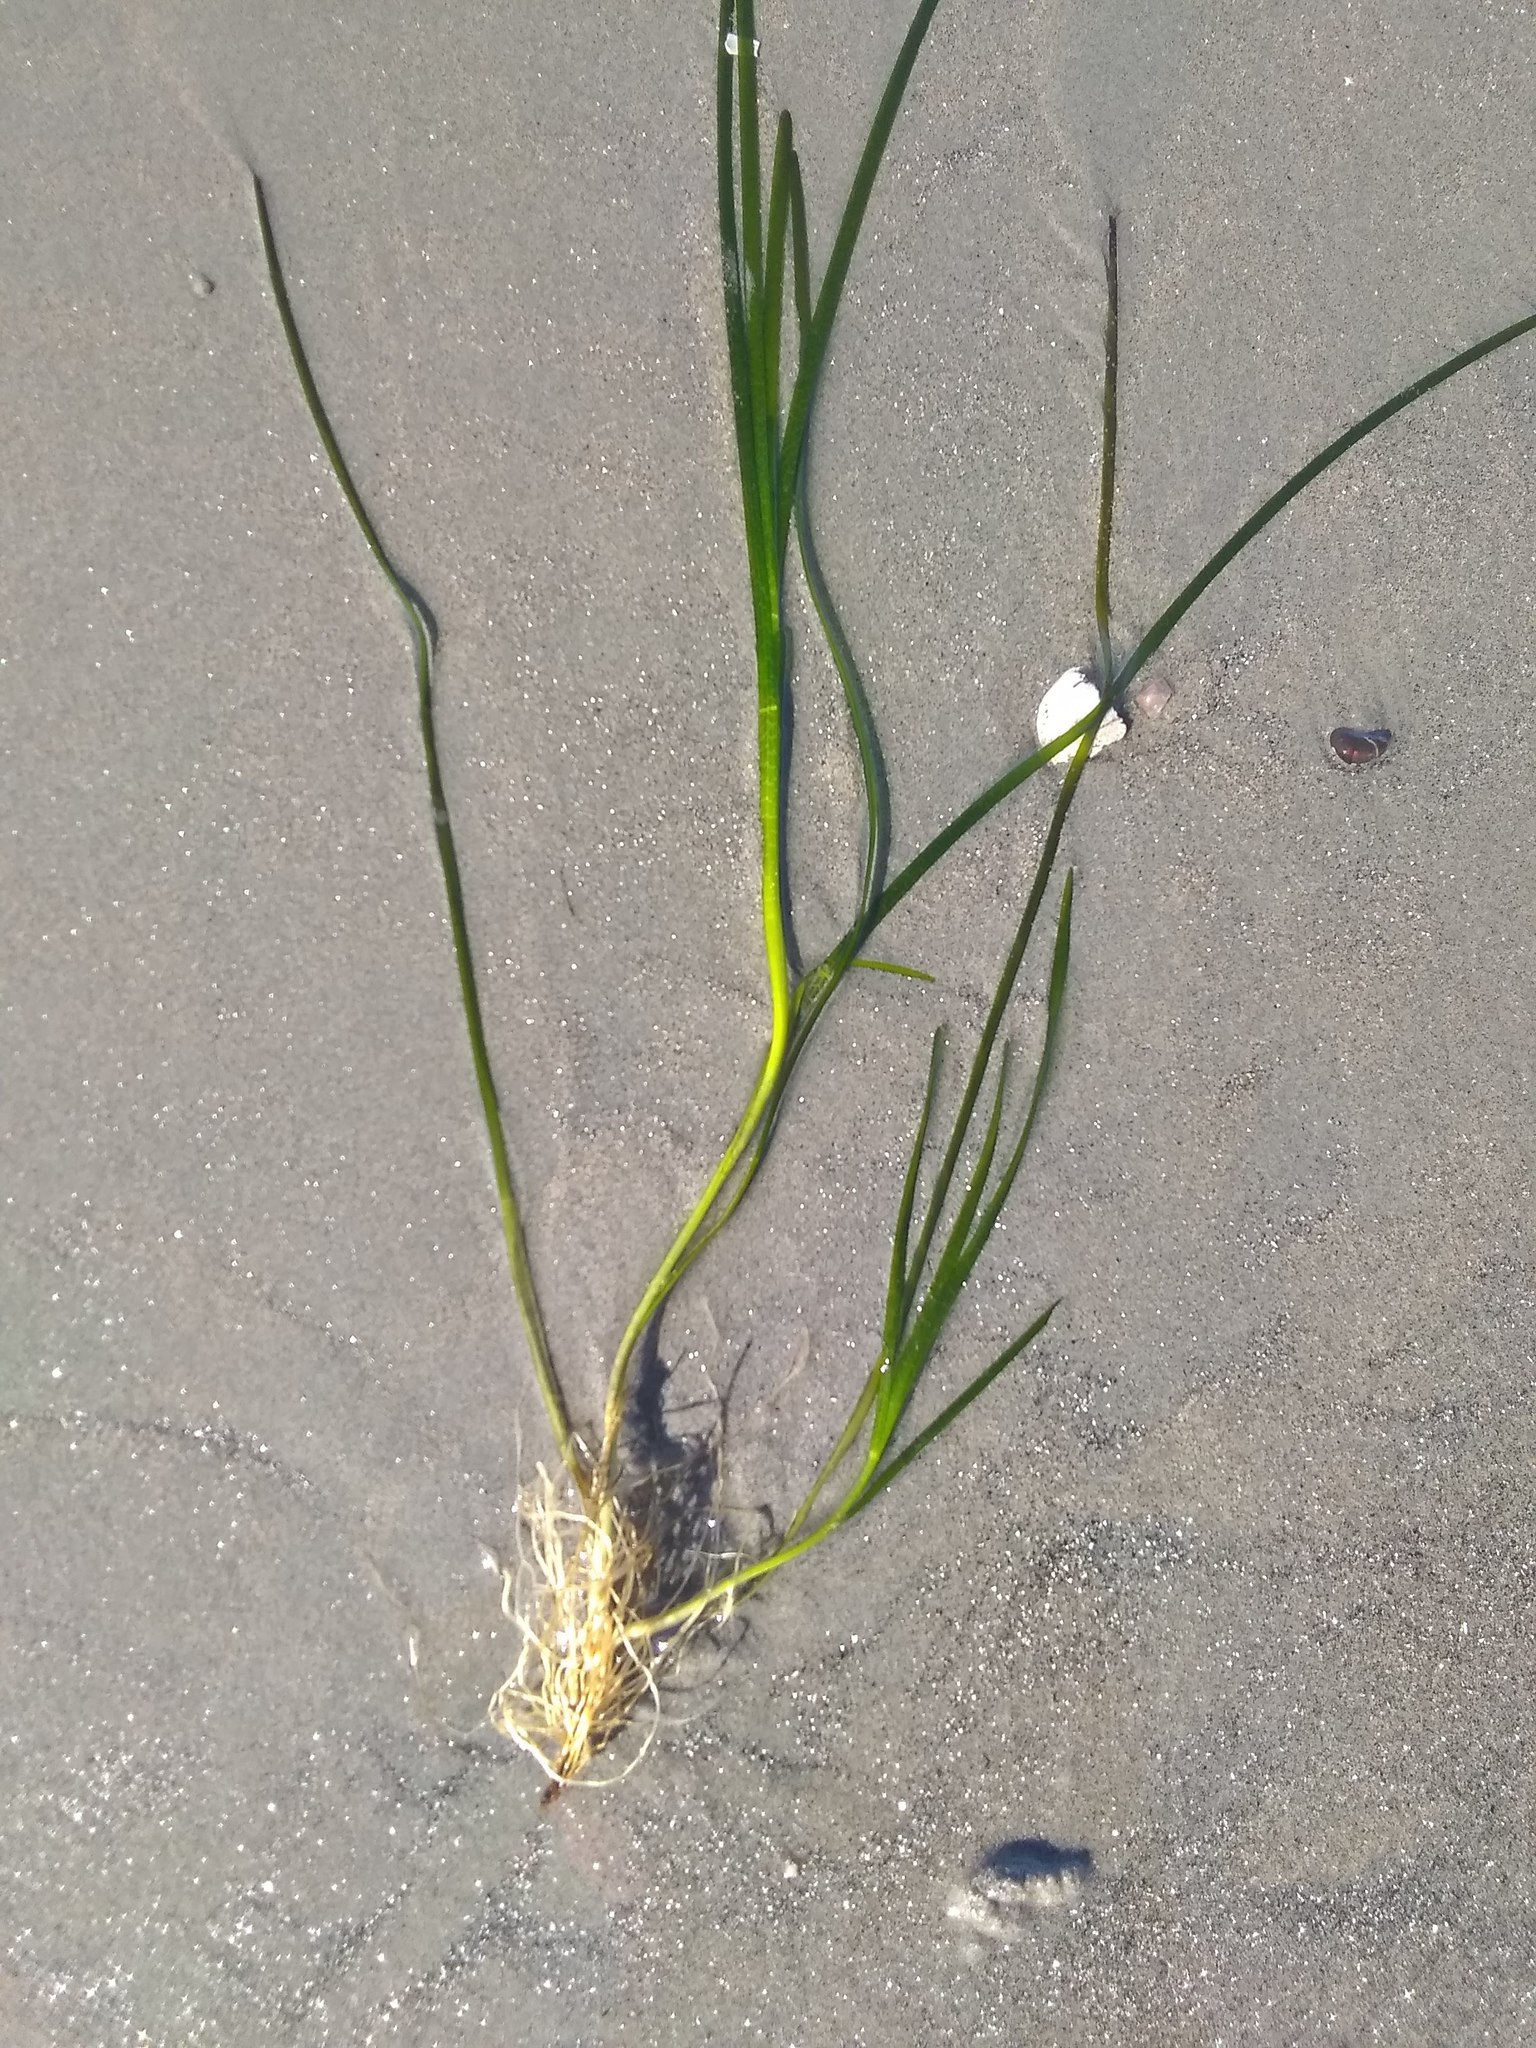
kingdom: Plantae
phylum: Tracheophyta
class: Liliopsida
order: Alismatales
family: Zosteraceae
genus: Zostera
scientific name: Zostera marina
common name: Eelgrass
